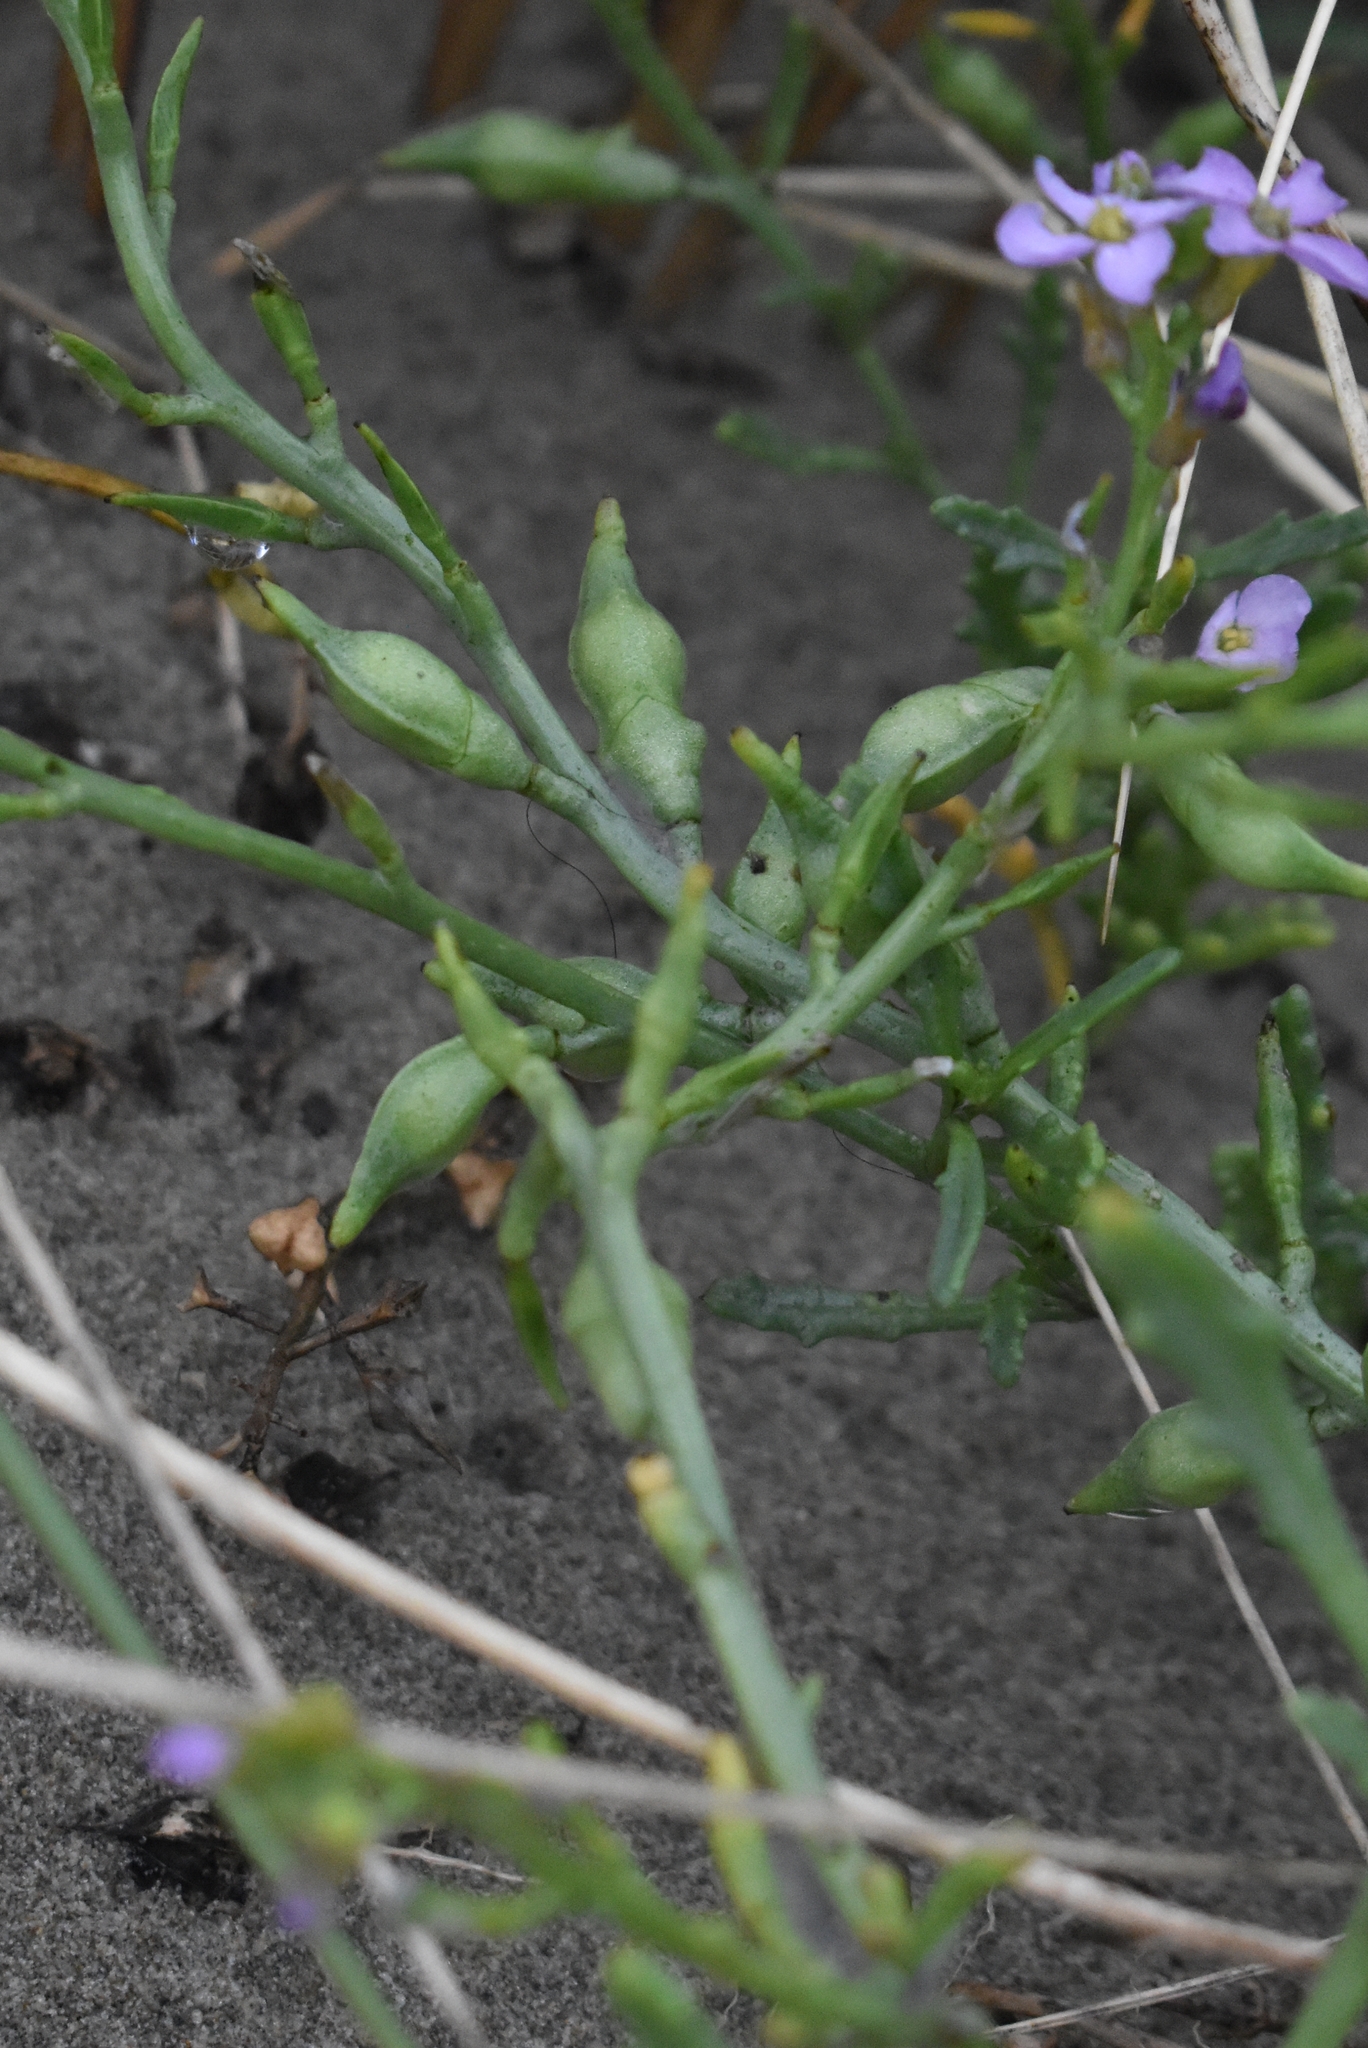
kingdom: Plantae
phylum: Tracheophyta
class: Magnoliopsida
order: Brassicales
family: Brassicaceae
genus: Cakile
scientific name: Cakile maritima
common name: Sea rocket
